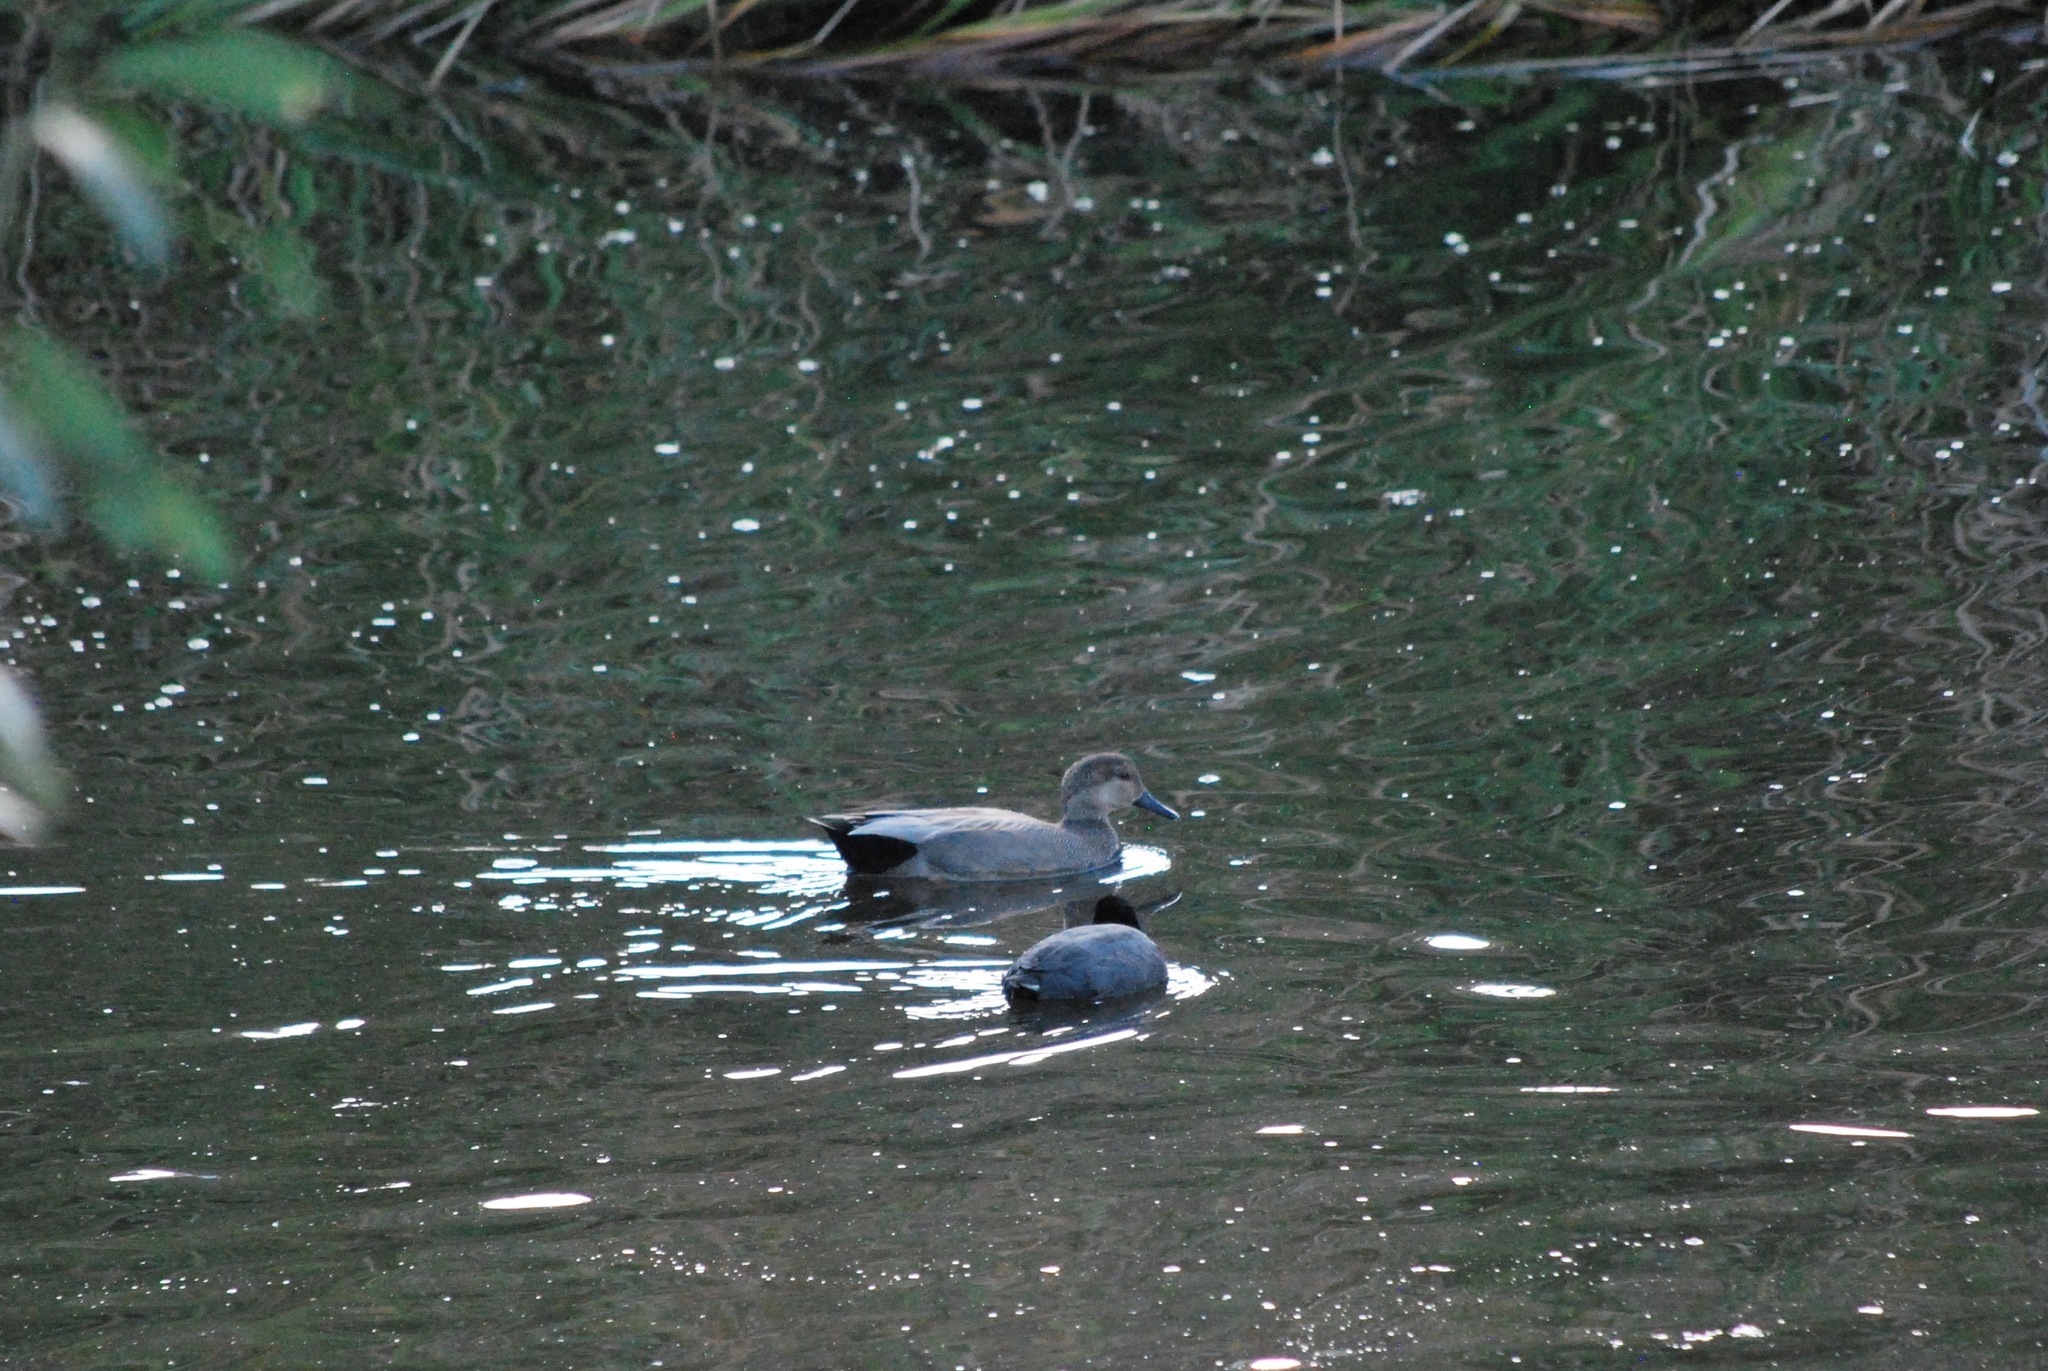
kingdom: Animalia
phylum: Chordata
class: Aves
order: Anseriformes
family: Anatidae
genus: Mareca
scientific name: Mareca strepera
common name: Gadwall
